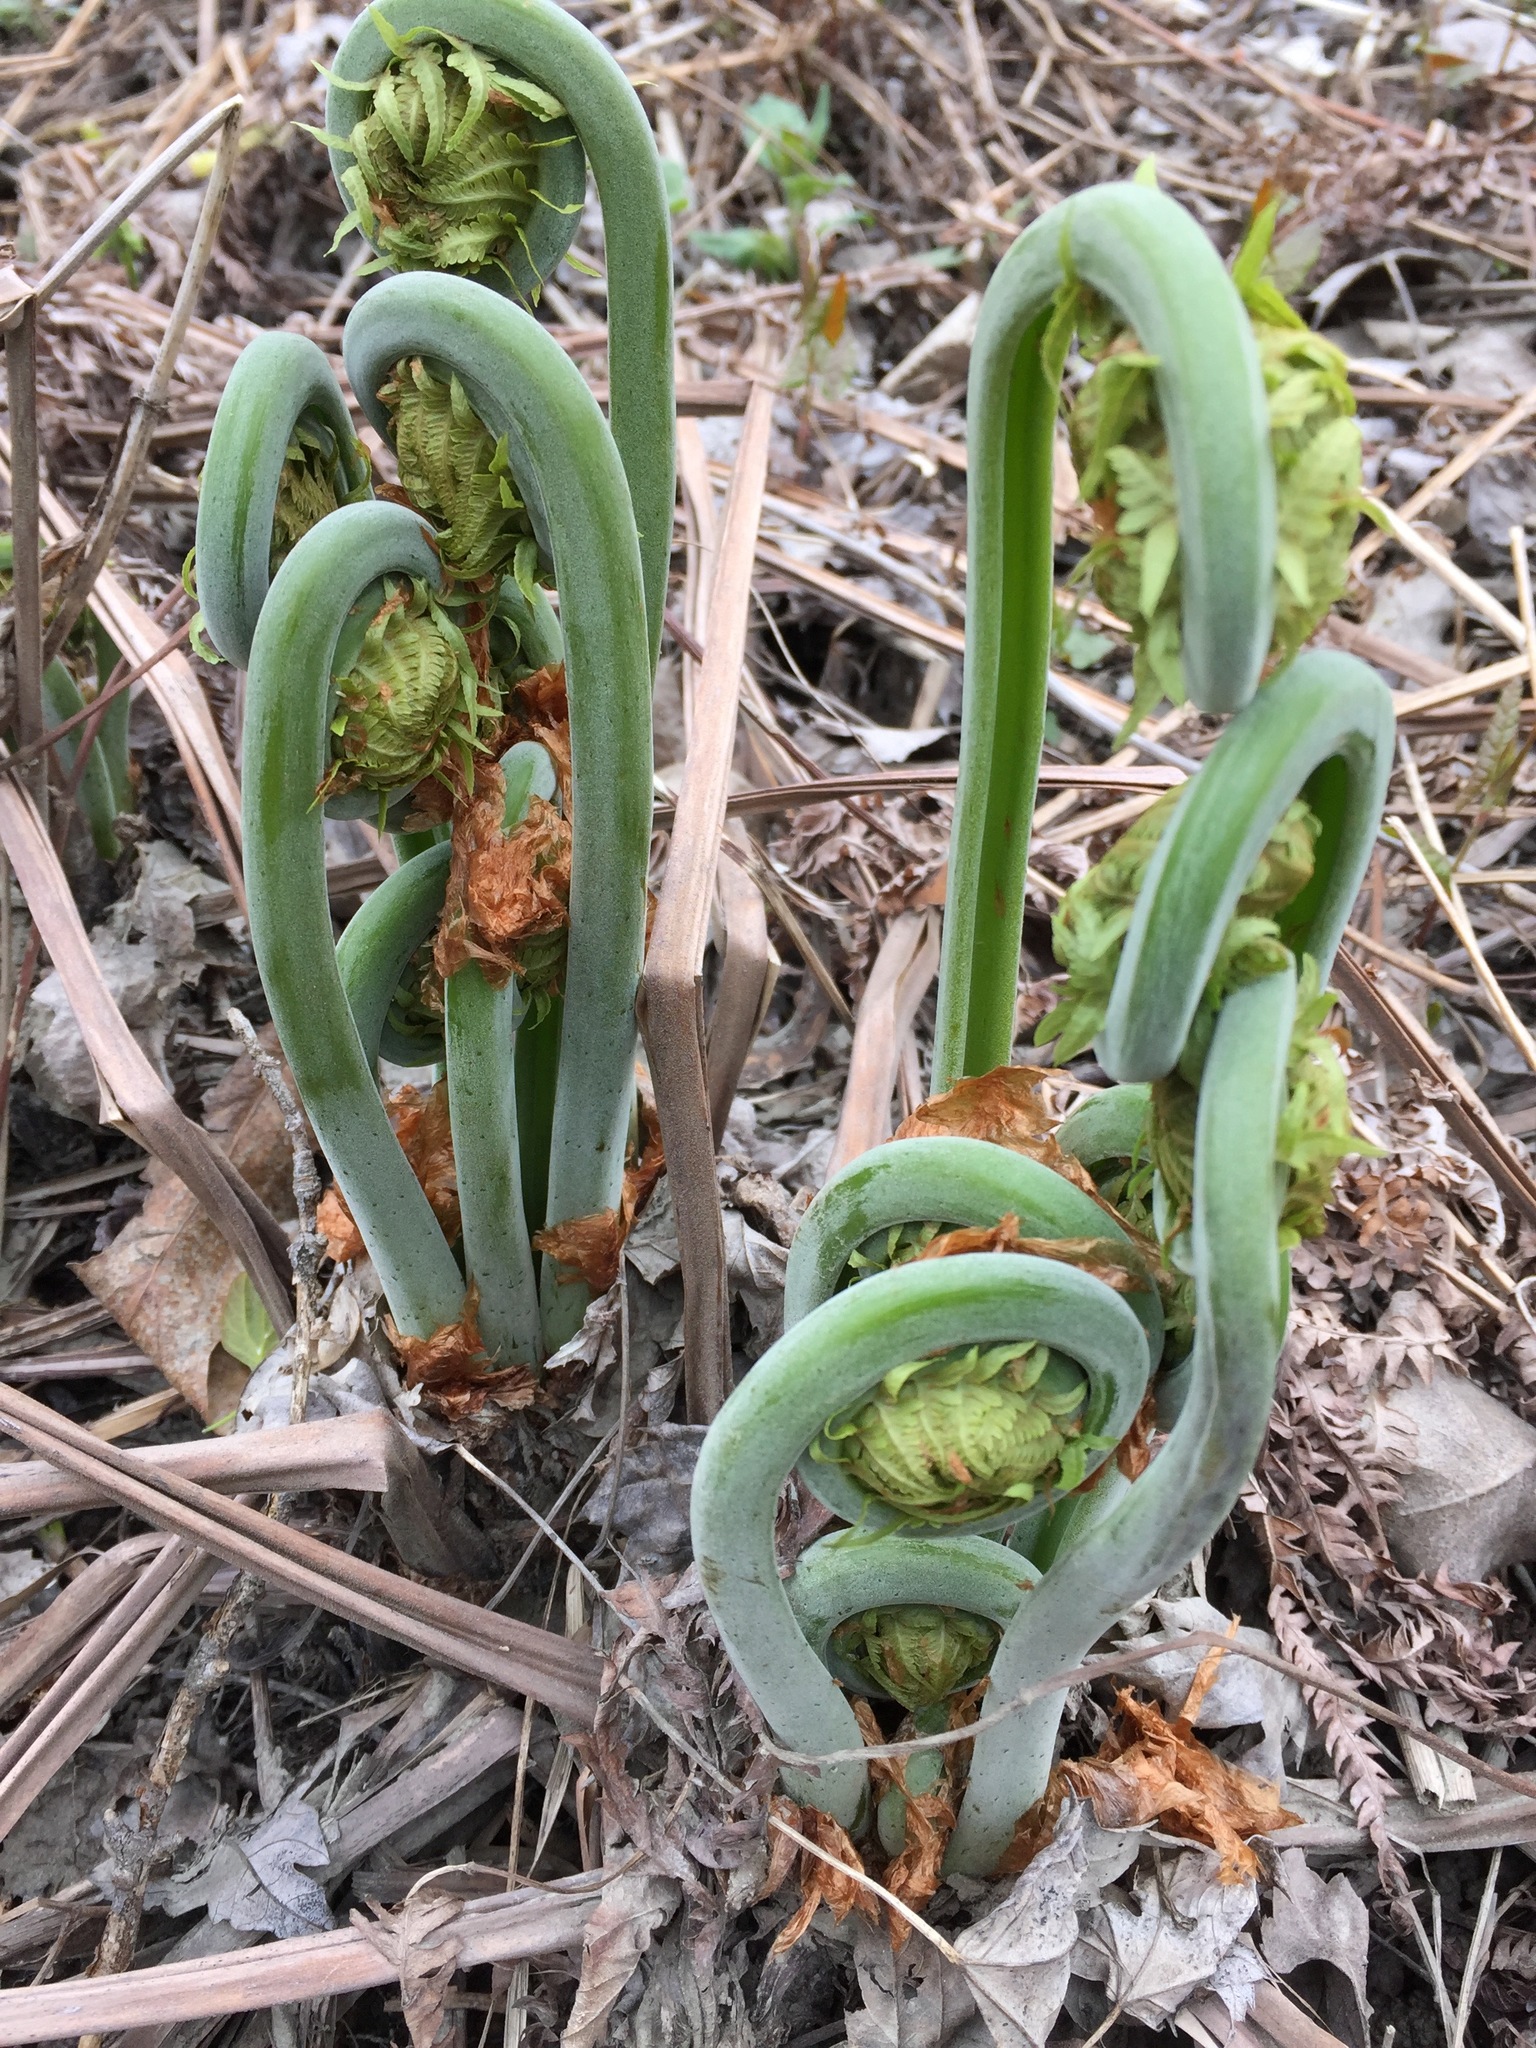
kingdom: Plantae
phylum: Tracheophyta
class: Polypodiopsida
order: Polypodiales
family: Onocleaceae
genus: Matteuccia
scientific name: Matteuccia struthiopteris
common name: Ostrich fern
